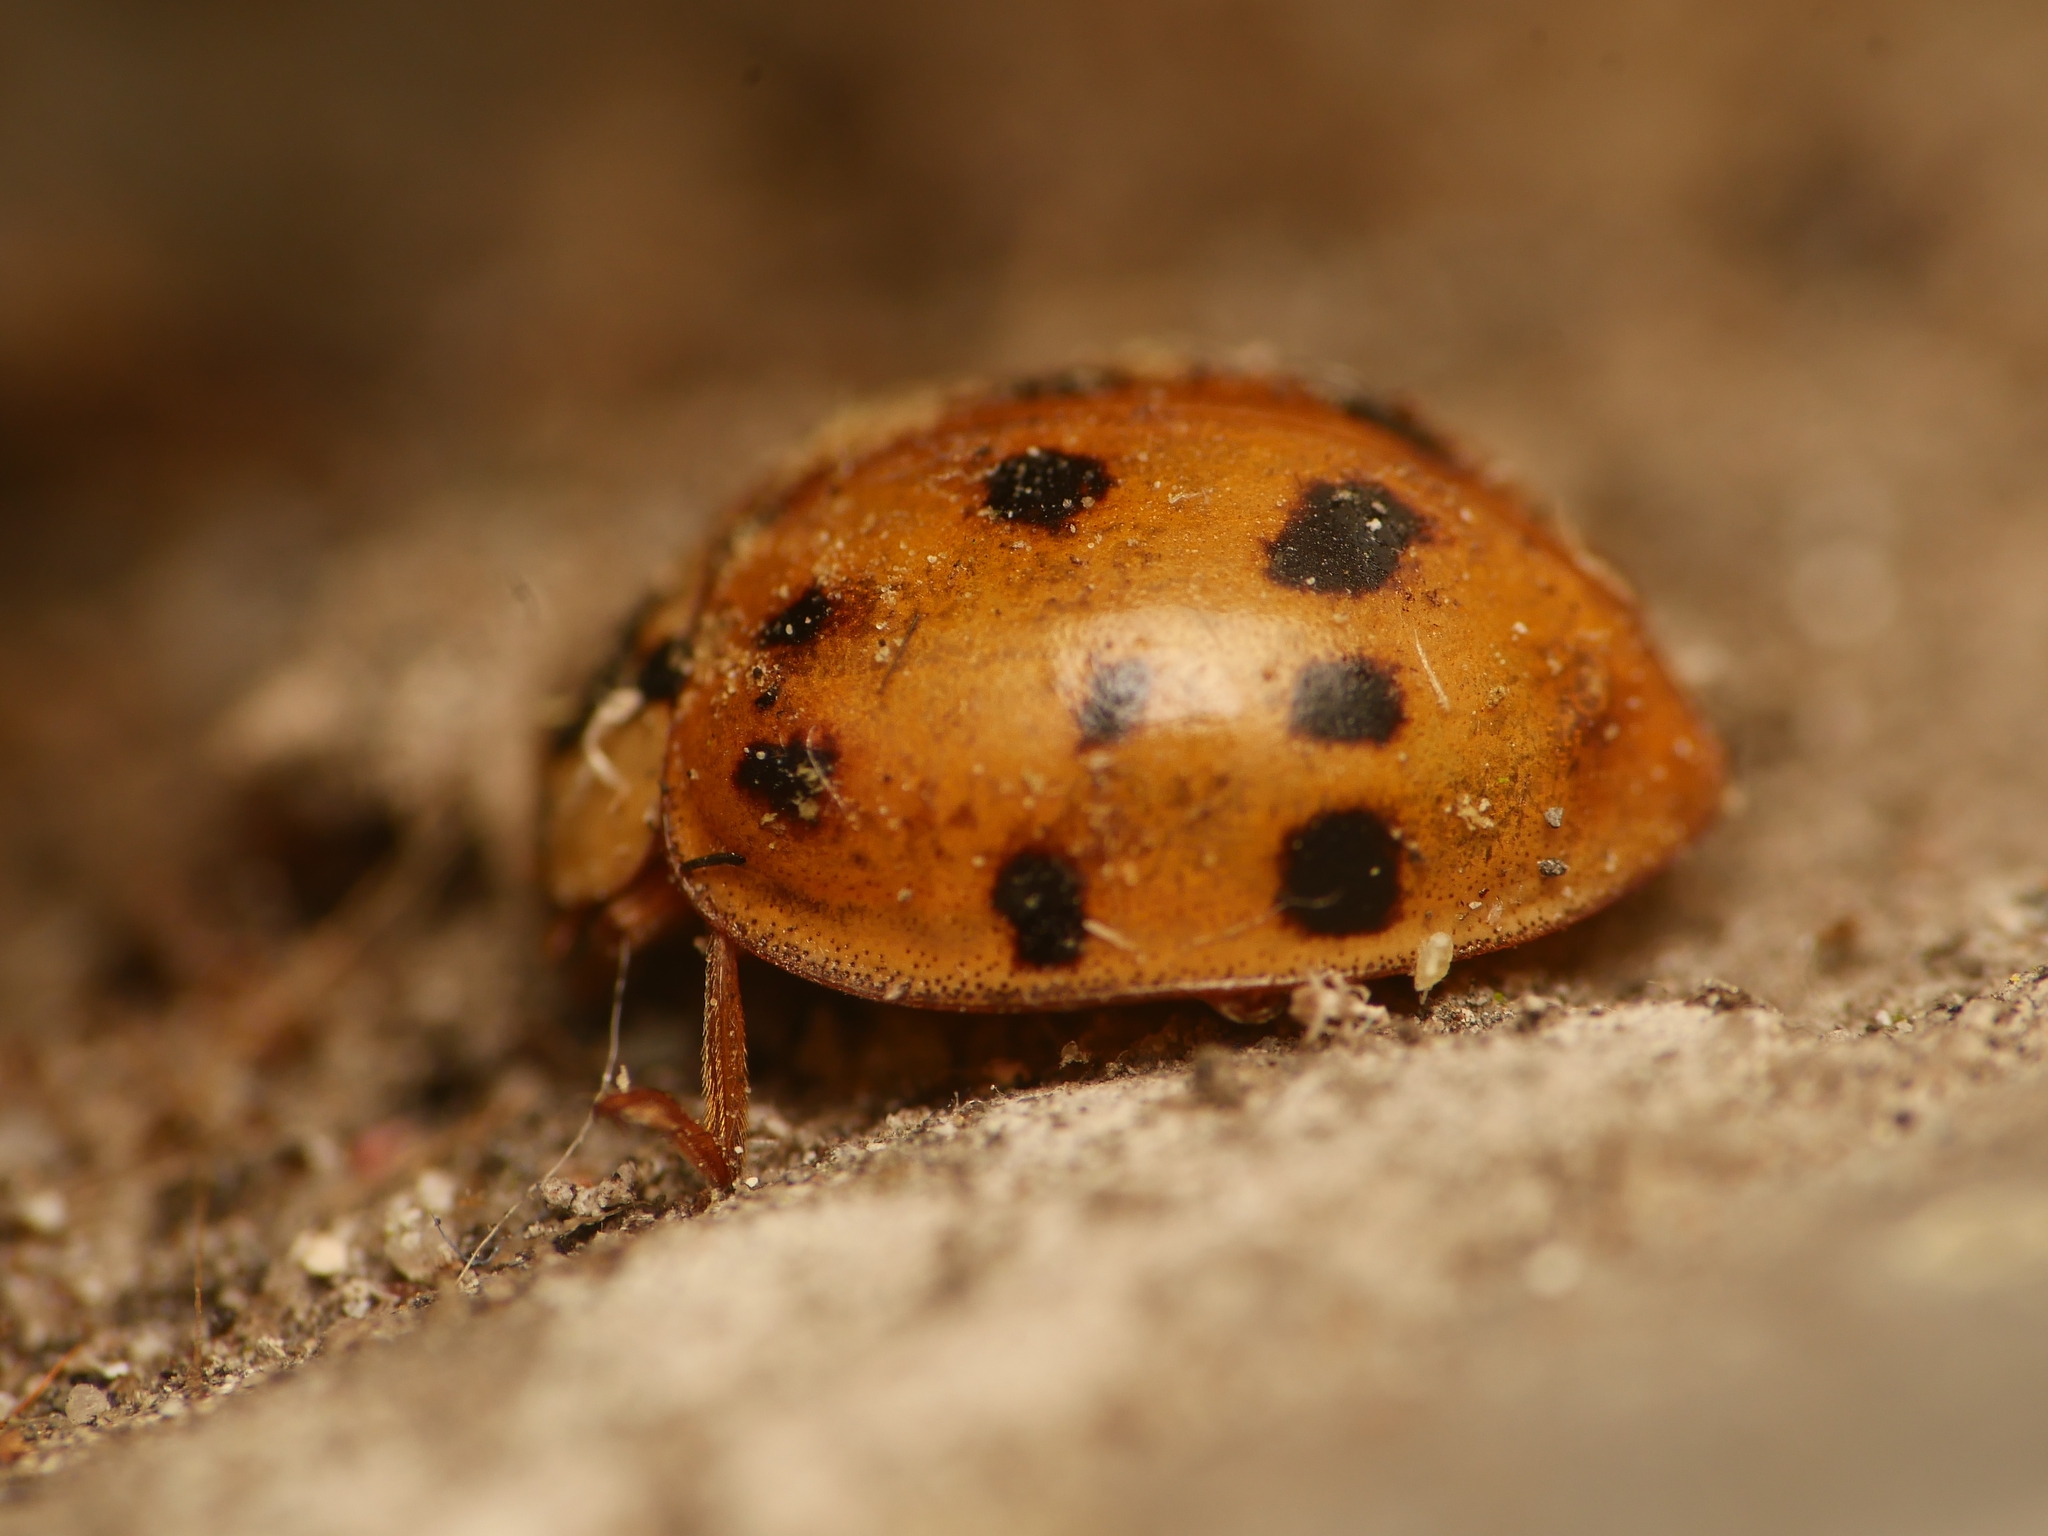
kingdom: Animalia
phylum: Arthropoda
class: Insecta
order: Coleoptera
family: Coccinellidae
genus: Harmonia
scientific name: Harmonia axyridis
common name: Harlequin ladybird
